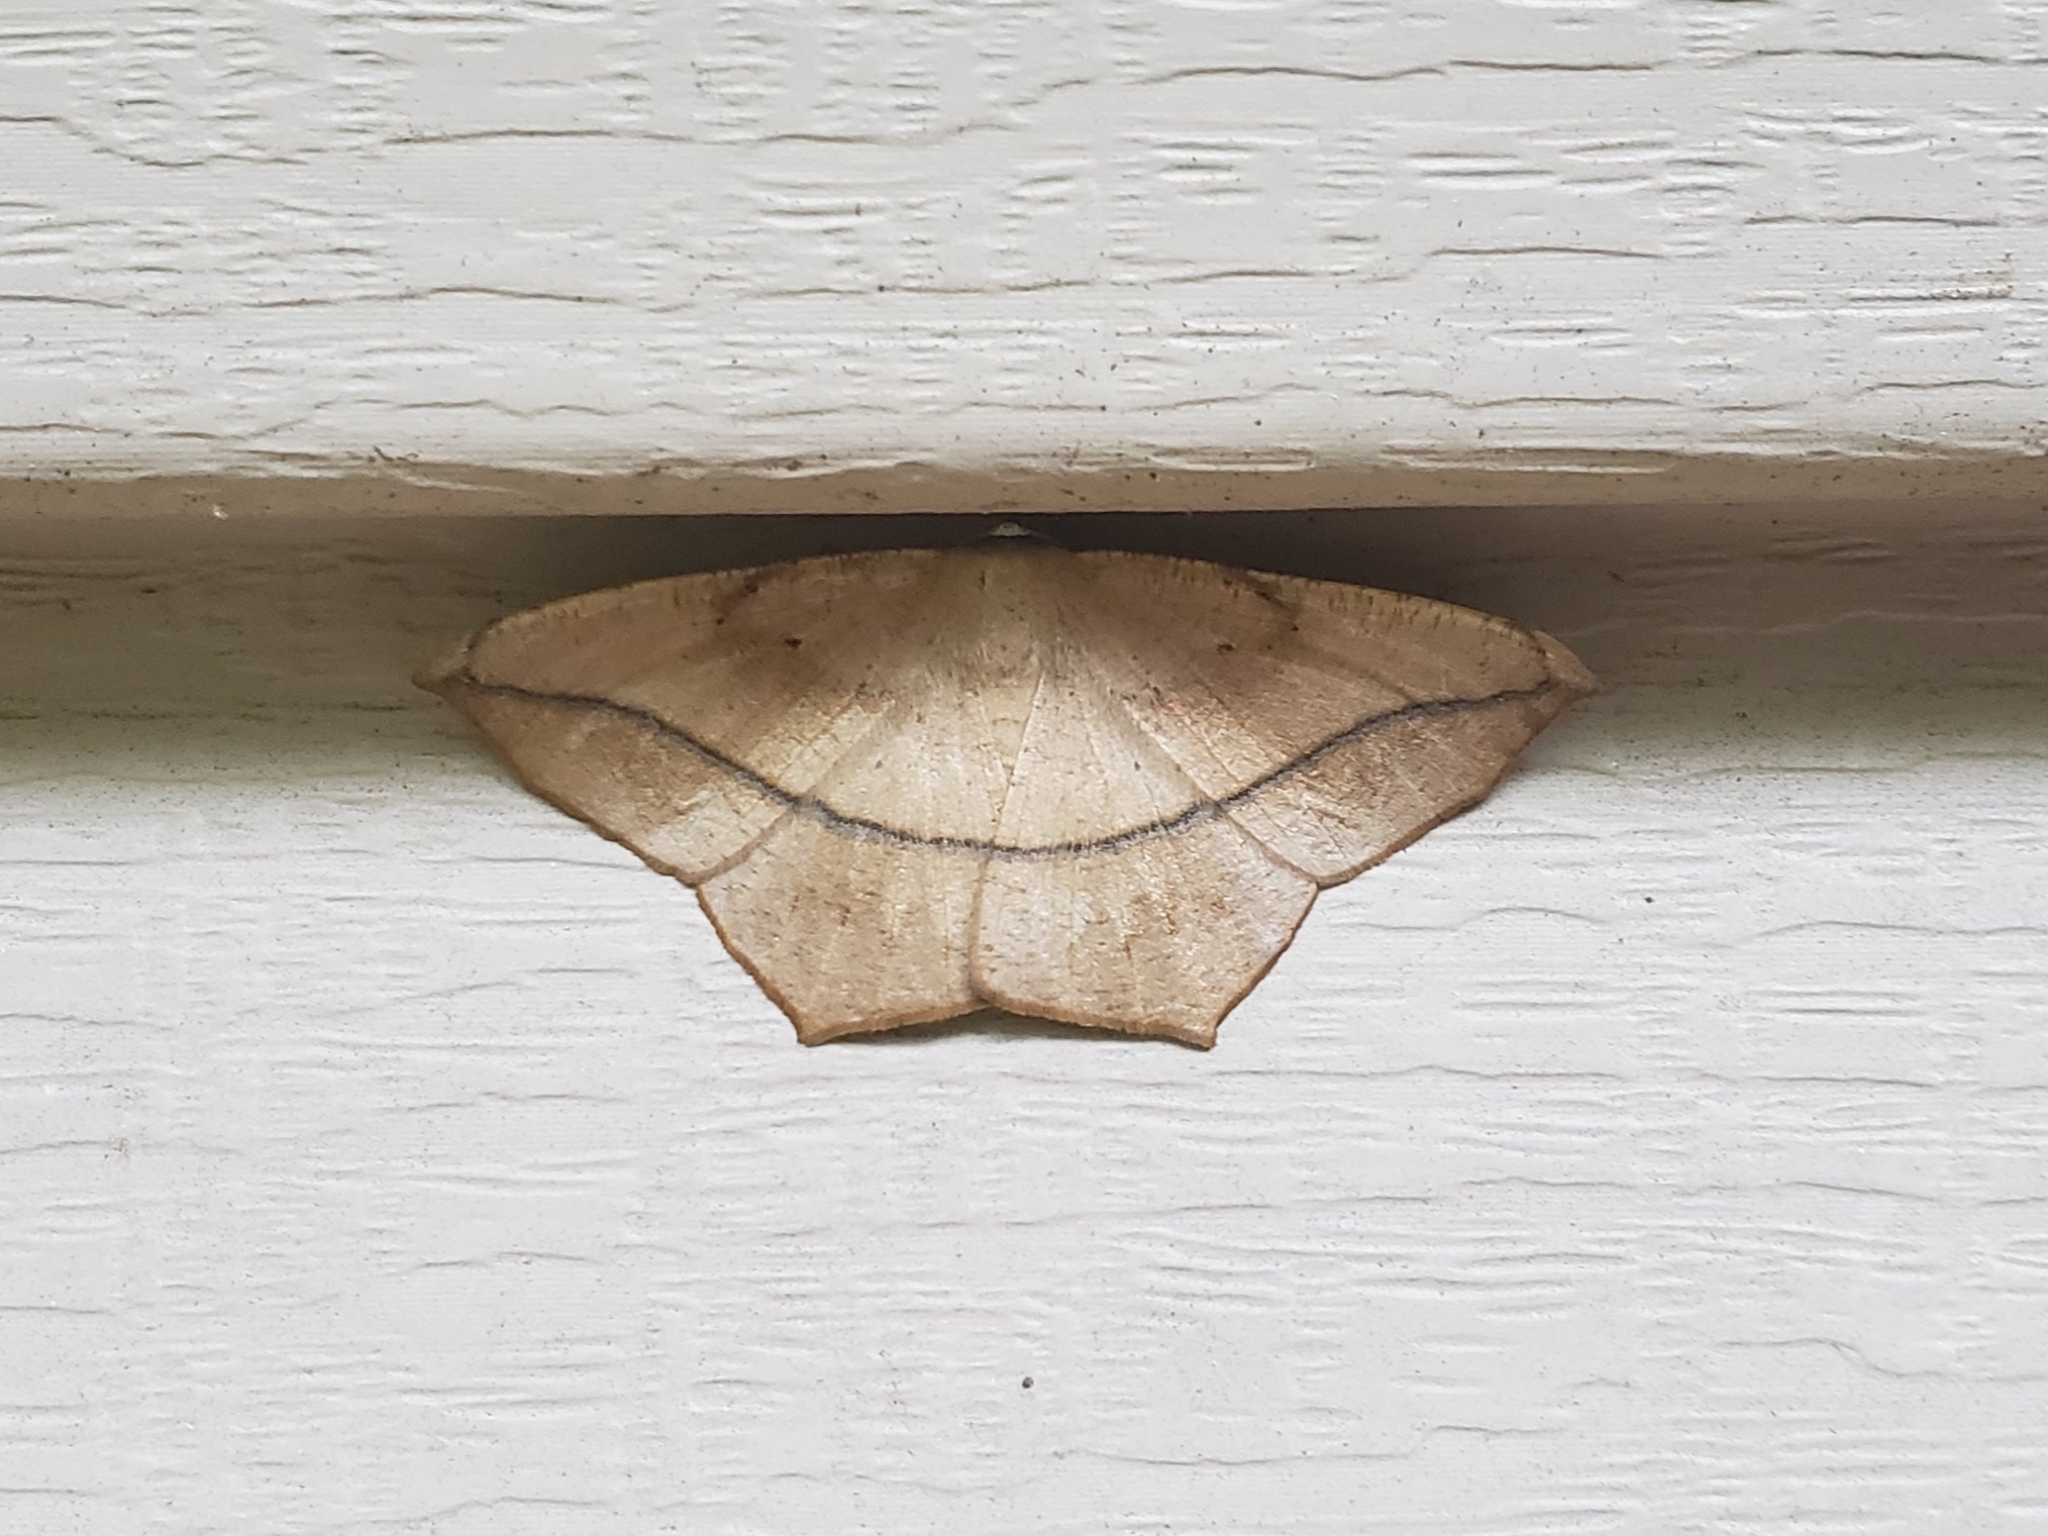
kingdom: Animalia
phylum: Arthropoda
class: Insecta
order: Lepidoptera
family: Geometridae
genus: Prochoerodes
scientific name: Prochoerodes lineola
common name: Large maple spanworm
